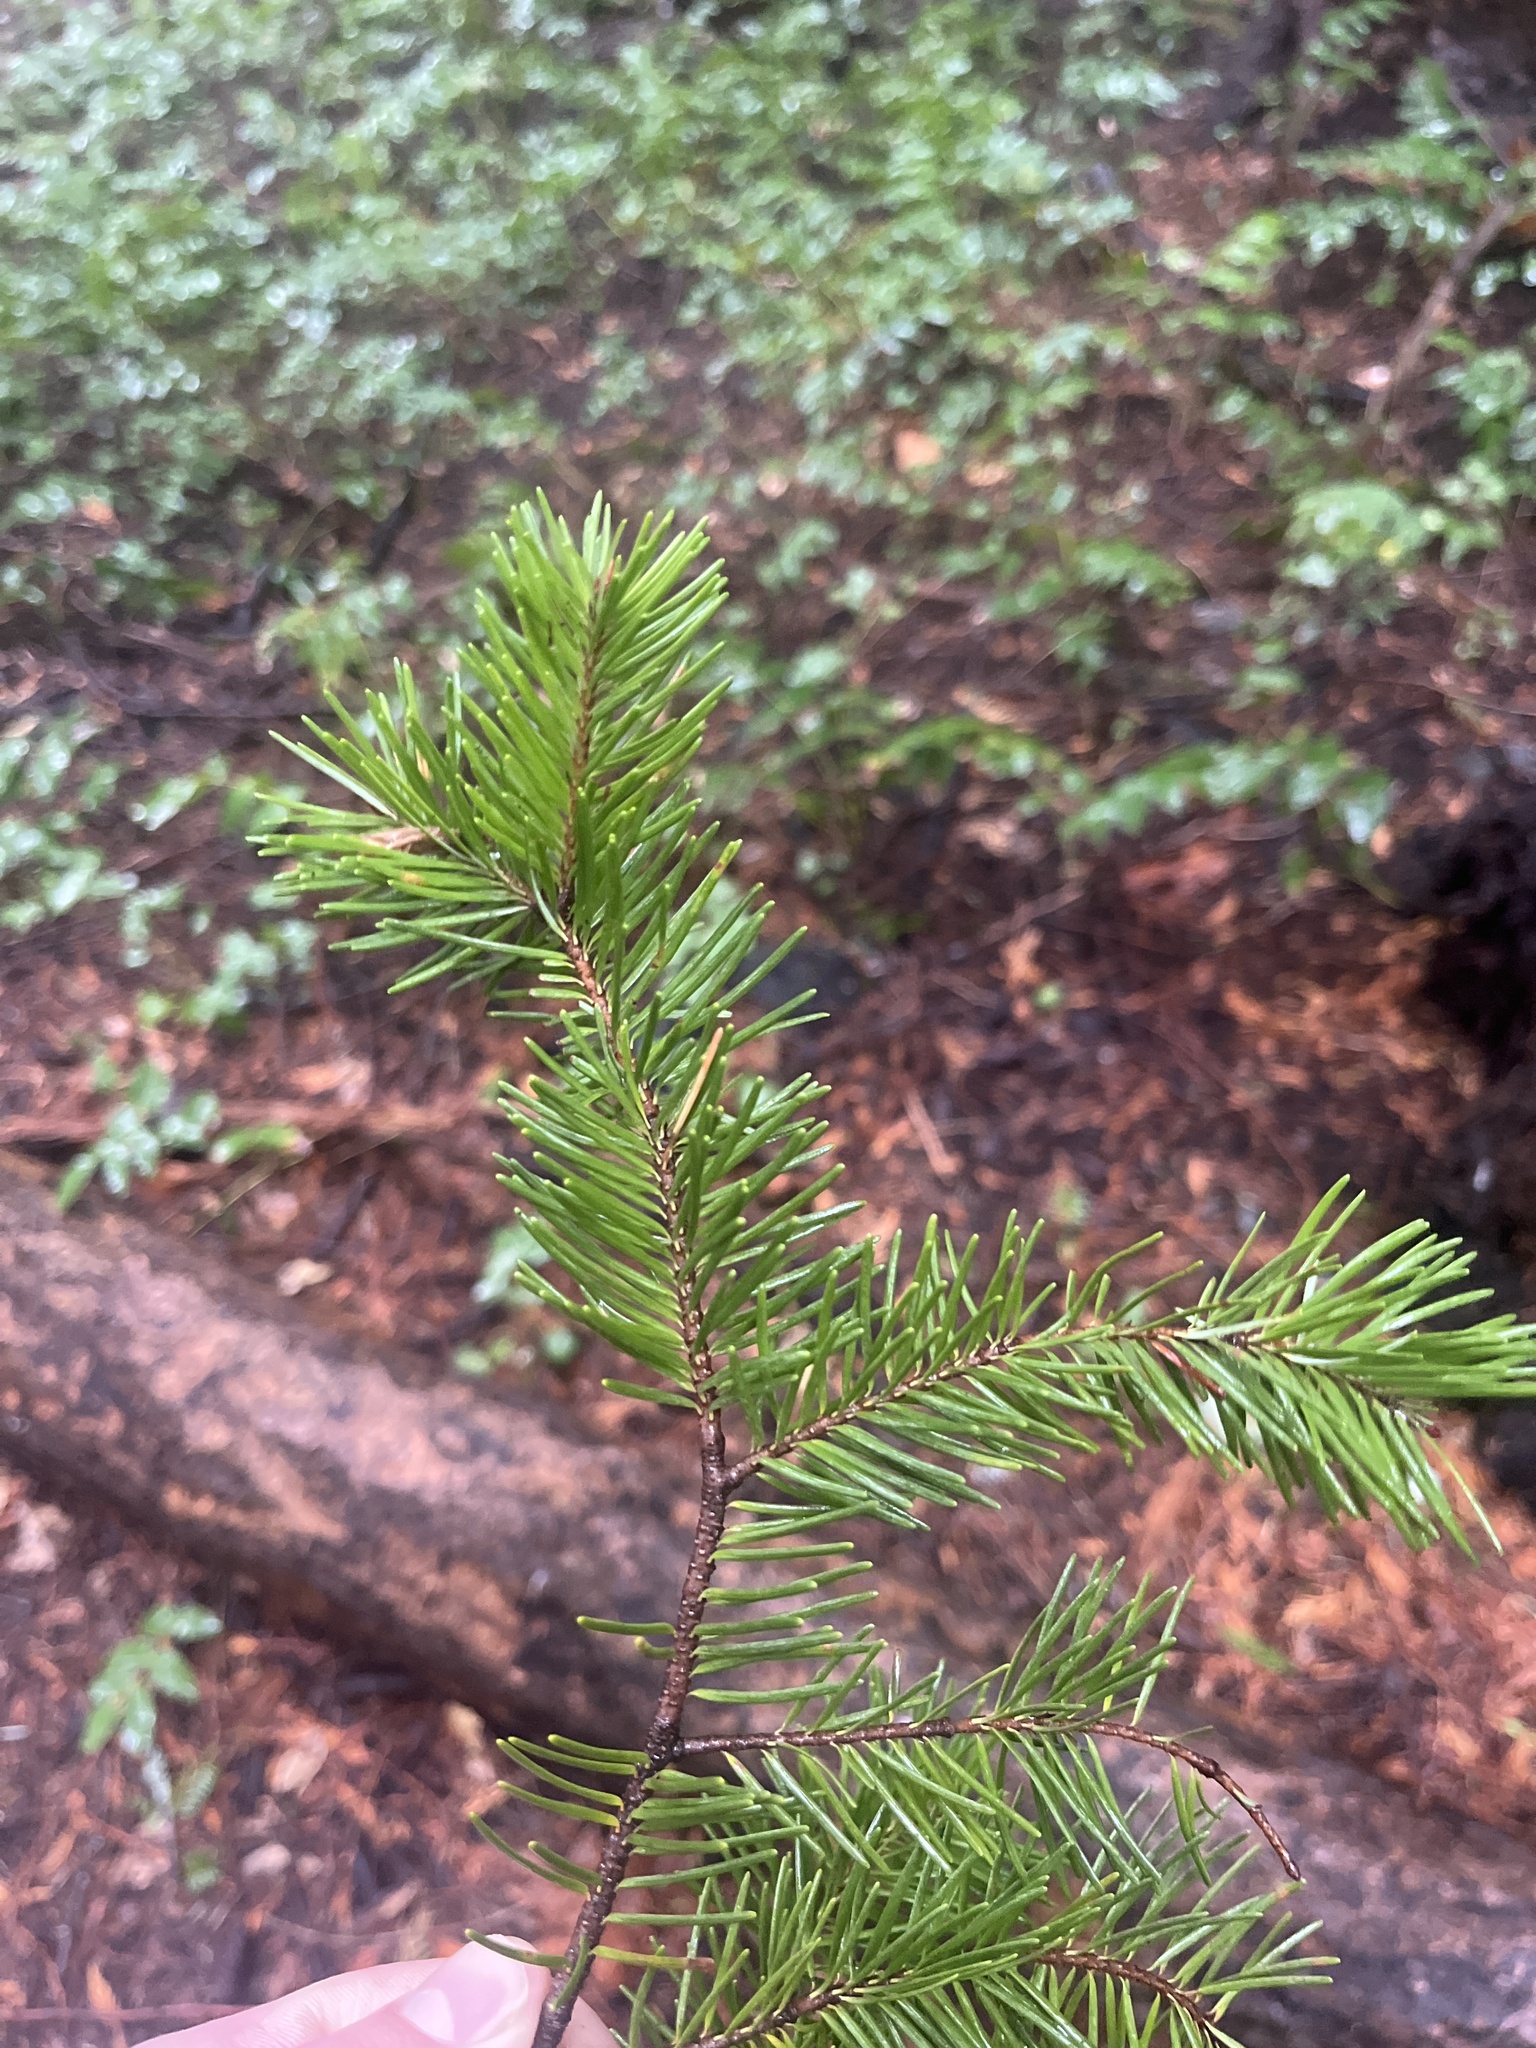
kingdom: Plantae
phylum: Tracheophyta
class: Pinopsida
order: Pinales
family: Pinaceae
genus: Pseudotsuga
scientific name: Pseudotsuga menziesii
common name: Douglas fir
